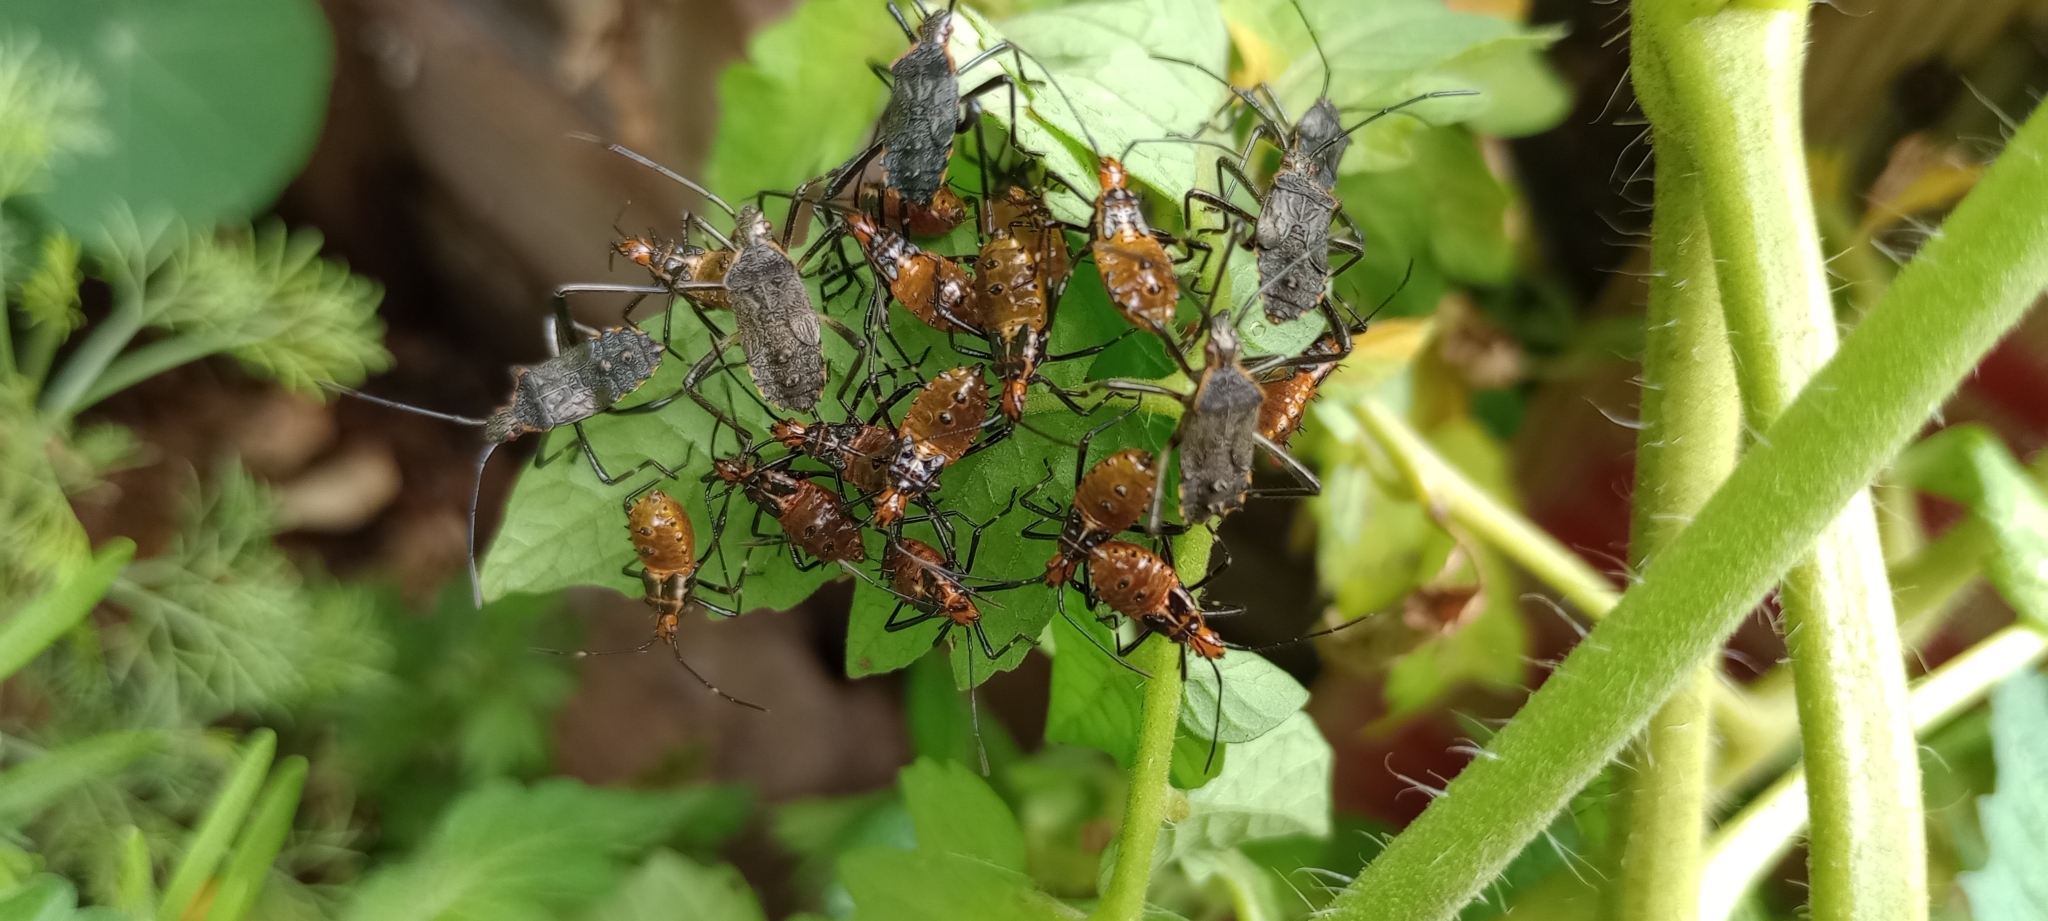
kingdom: Animalia
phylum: Arthropoda
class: Insecta
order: Hemiptera
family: Coreidae
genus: Phthiacnemia
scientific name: Phthiacnemia picta
